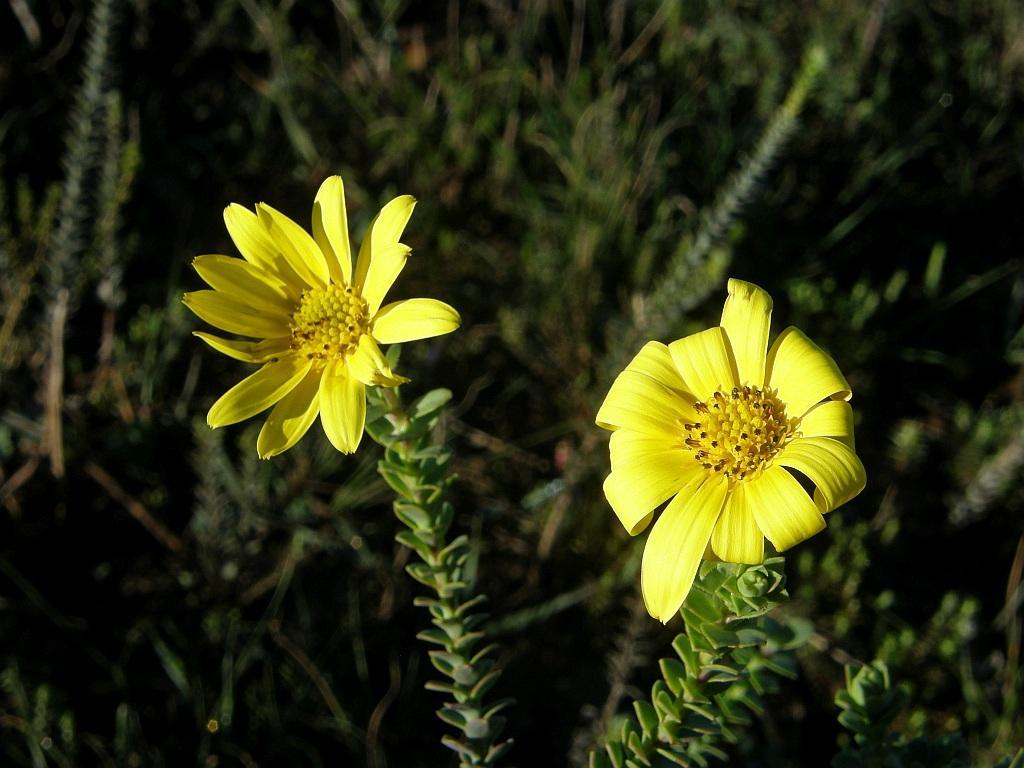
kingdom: Plantae
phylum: Tracheophyta
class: Magnoliopsida
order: Asterales
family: Asteraceae
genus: Osteospermum
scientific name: Osteospermum polygaloides
